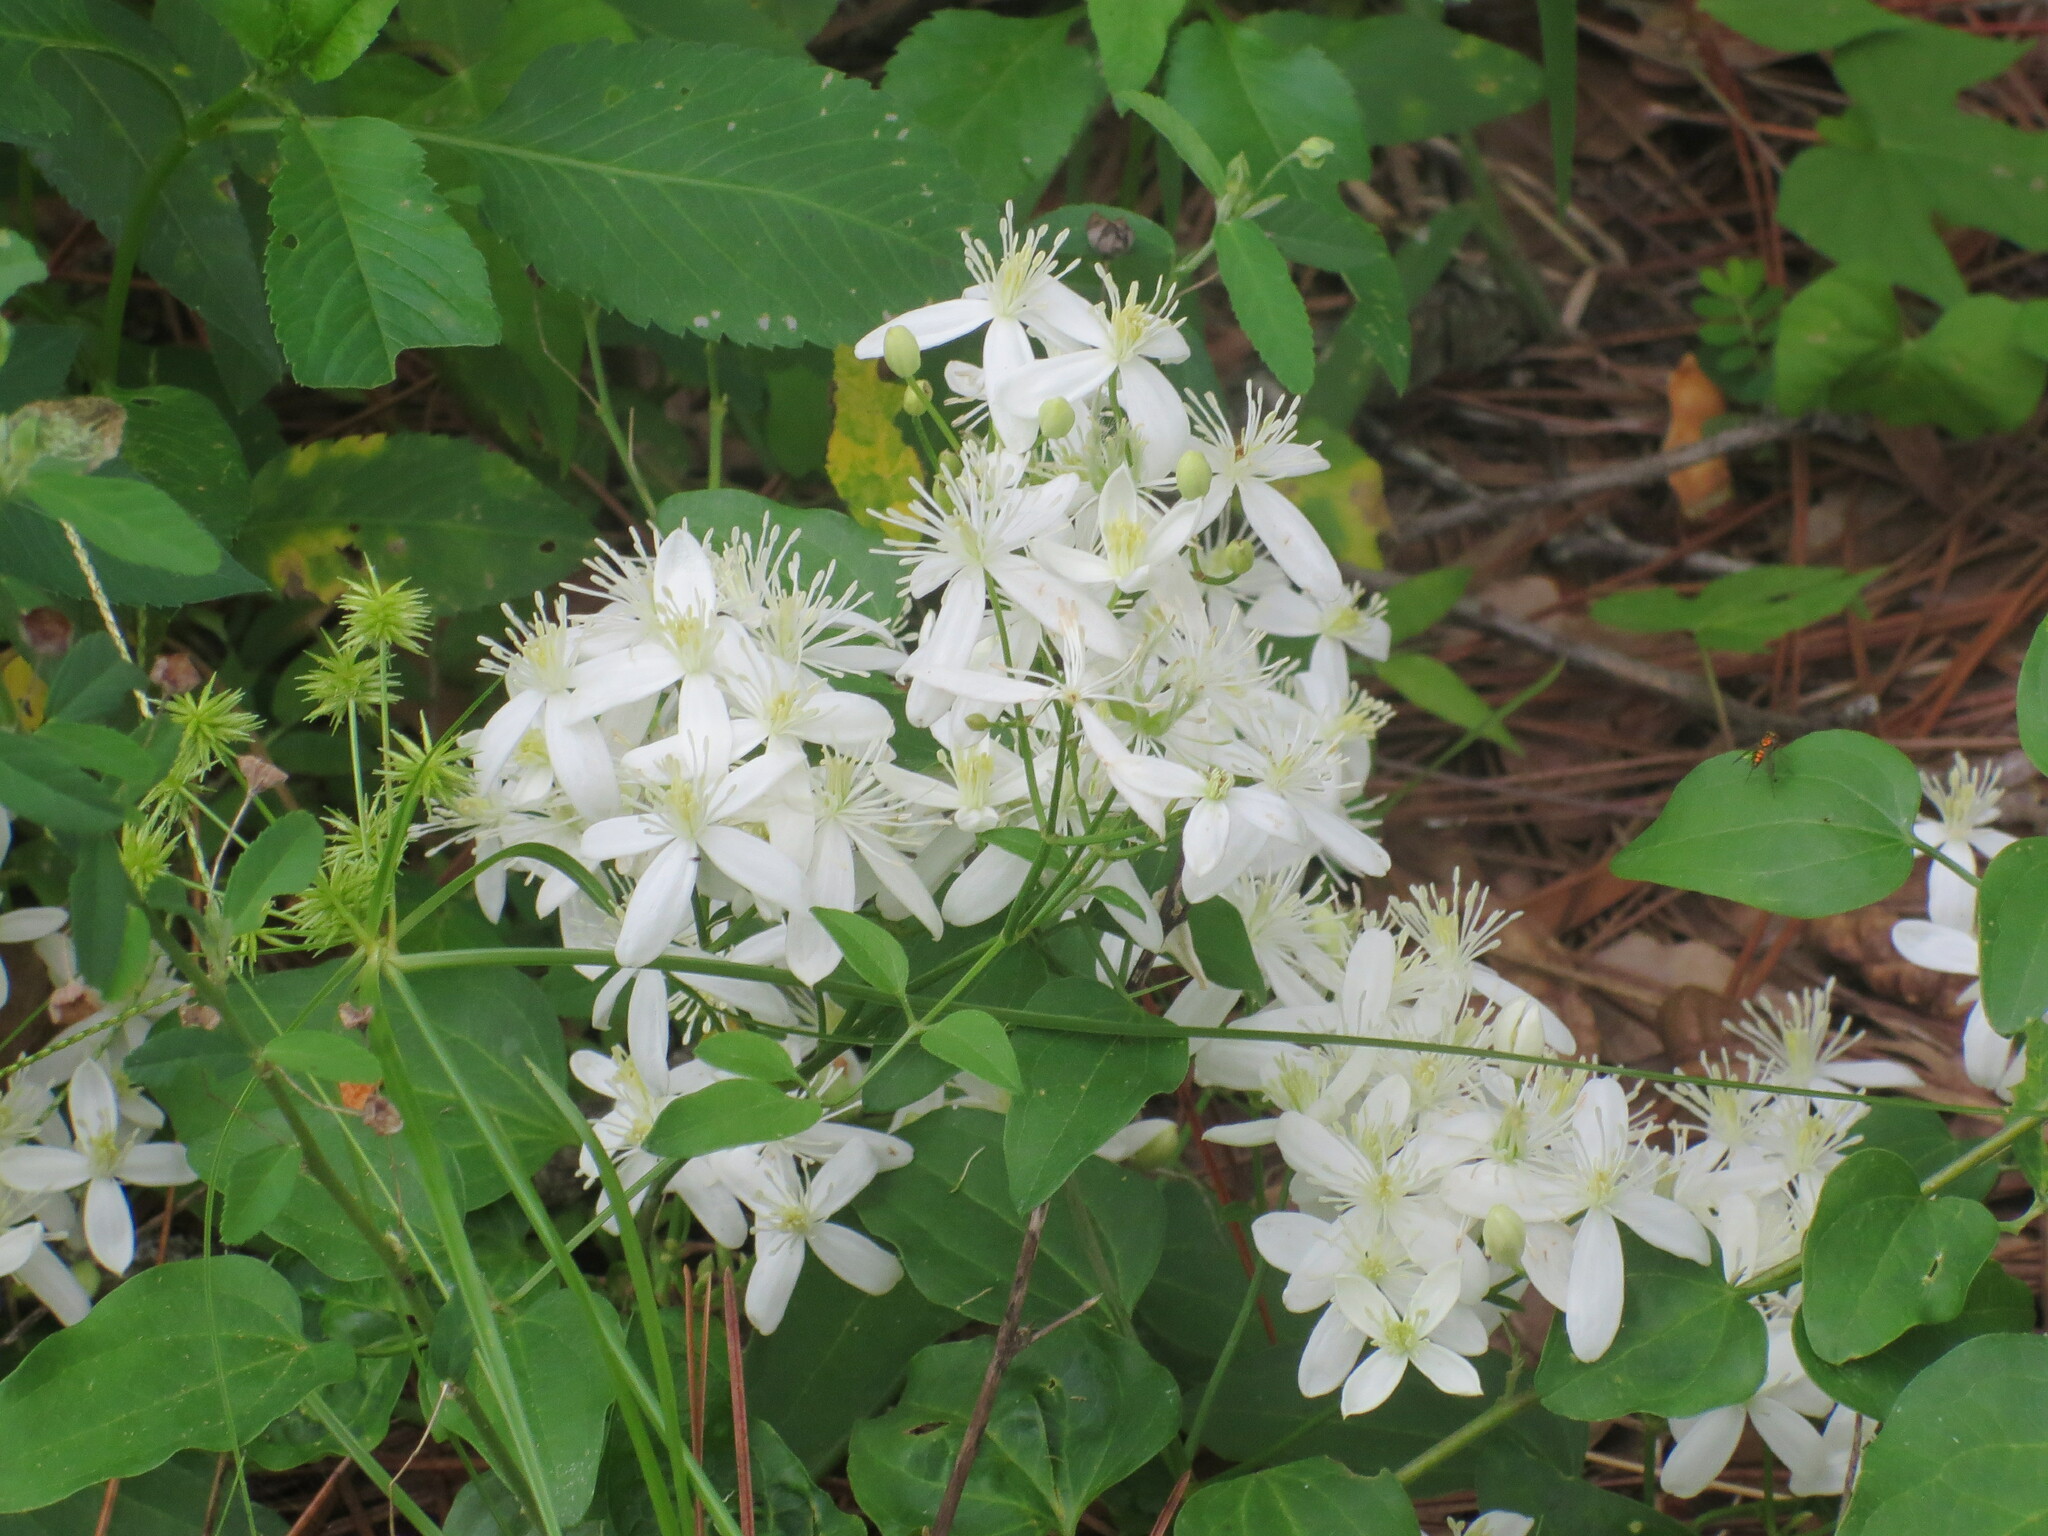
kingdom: Plantae
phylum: Tracheophyta
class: Magnoliopsida
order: Ranunculales
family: Ranunculaceae
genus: Clematis
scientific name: Clematis terniflora
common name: Sweet autumn clematis
